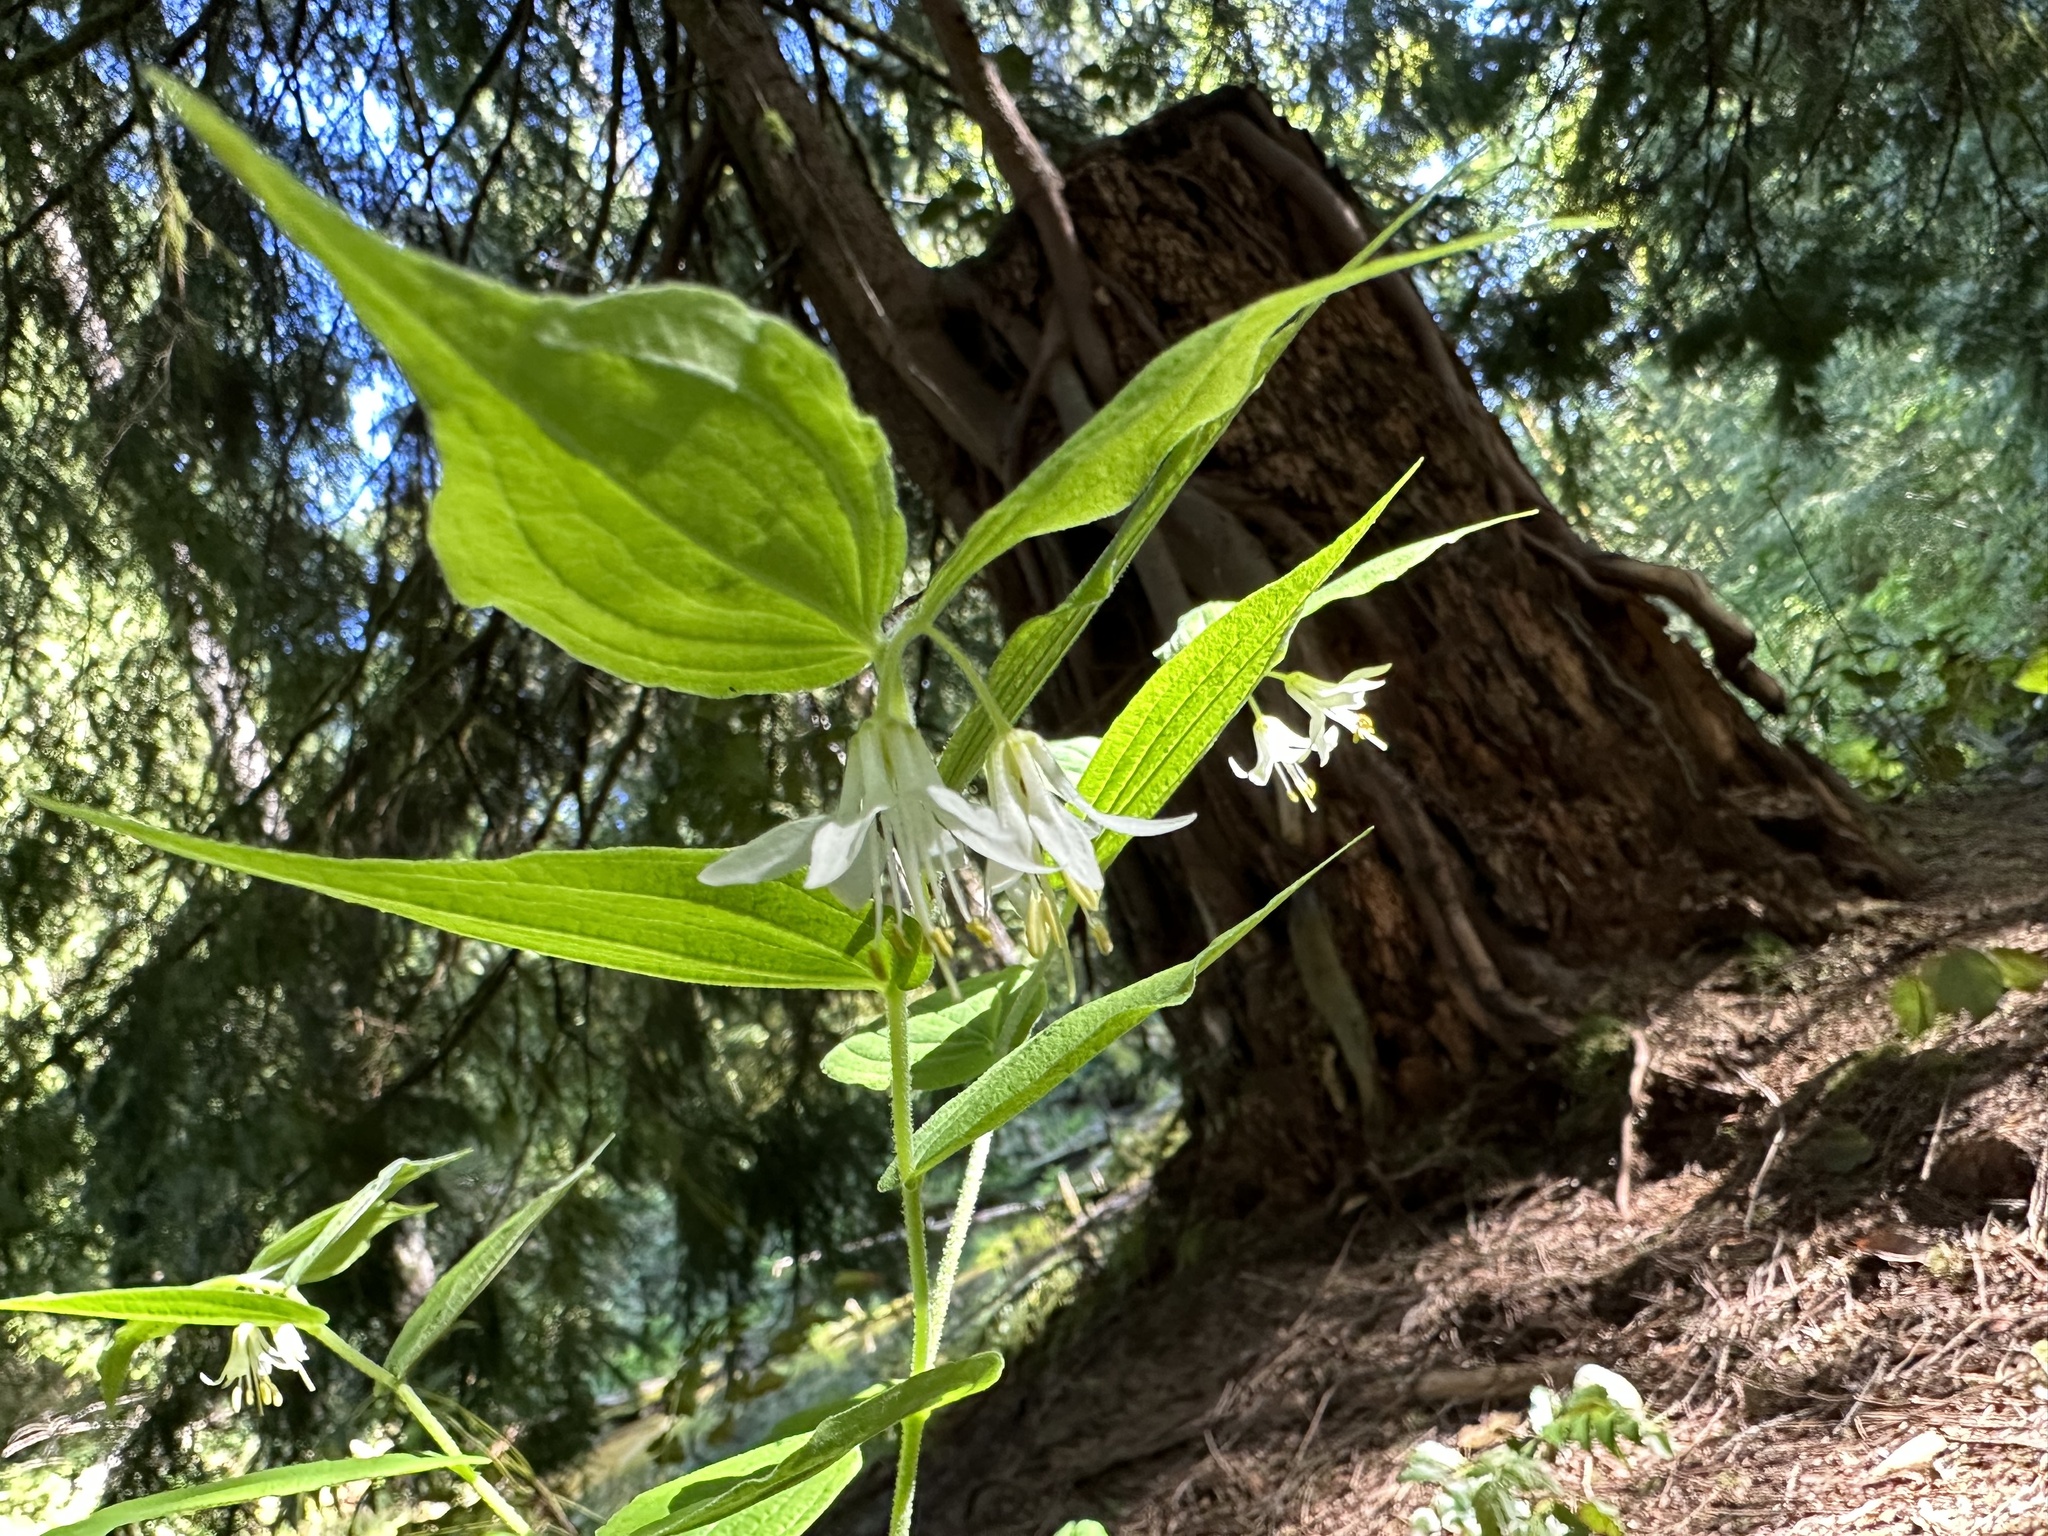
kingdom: Plantae
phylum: Tracheophyta
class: Liliopsida
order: Liliales
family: Liliaceae
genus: Prosartes
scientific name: Prosartes hookeri
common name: Fairy-bells
